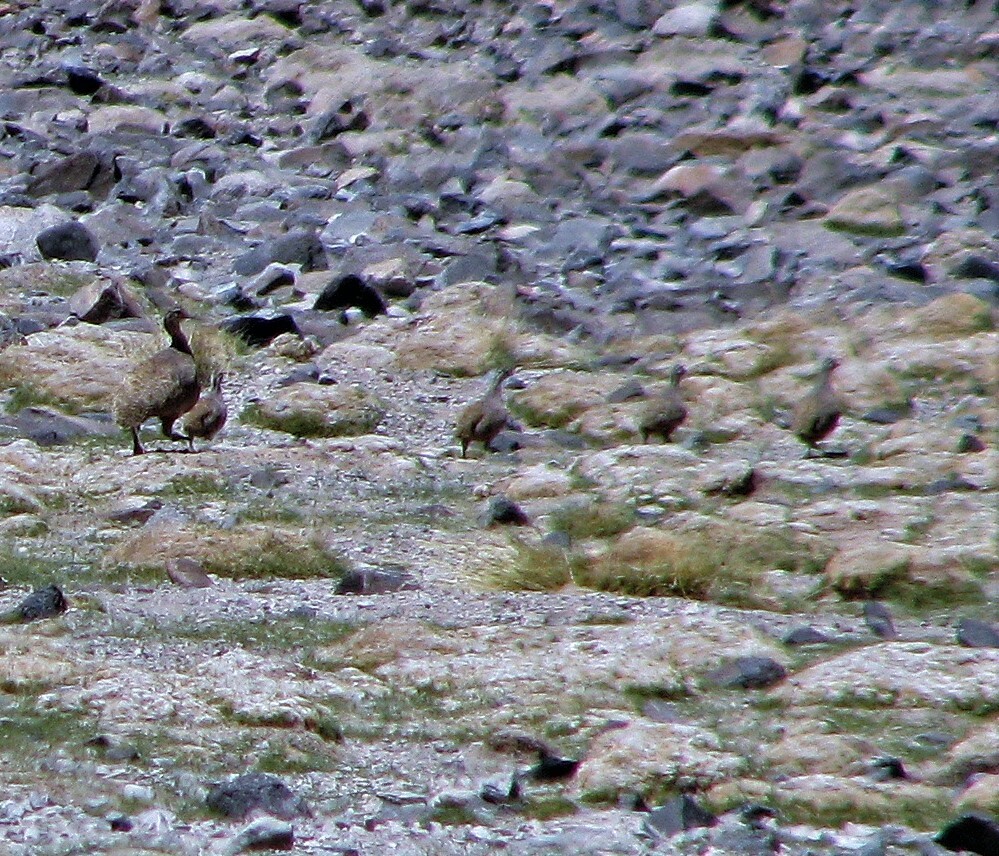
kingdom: Animalia
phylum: Chordata
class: Aves
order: Tinamiformes
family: Tinamidae
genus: Tinamotis
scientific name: Tinamotis pentlandii
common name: Puna tinamou
